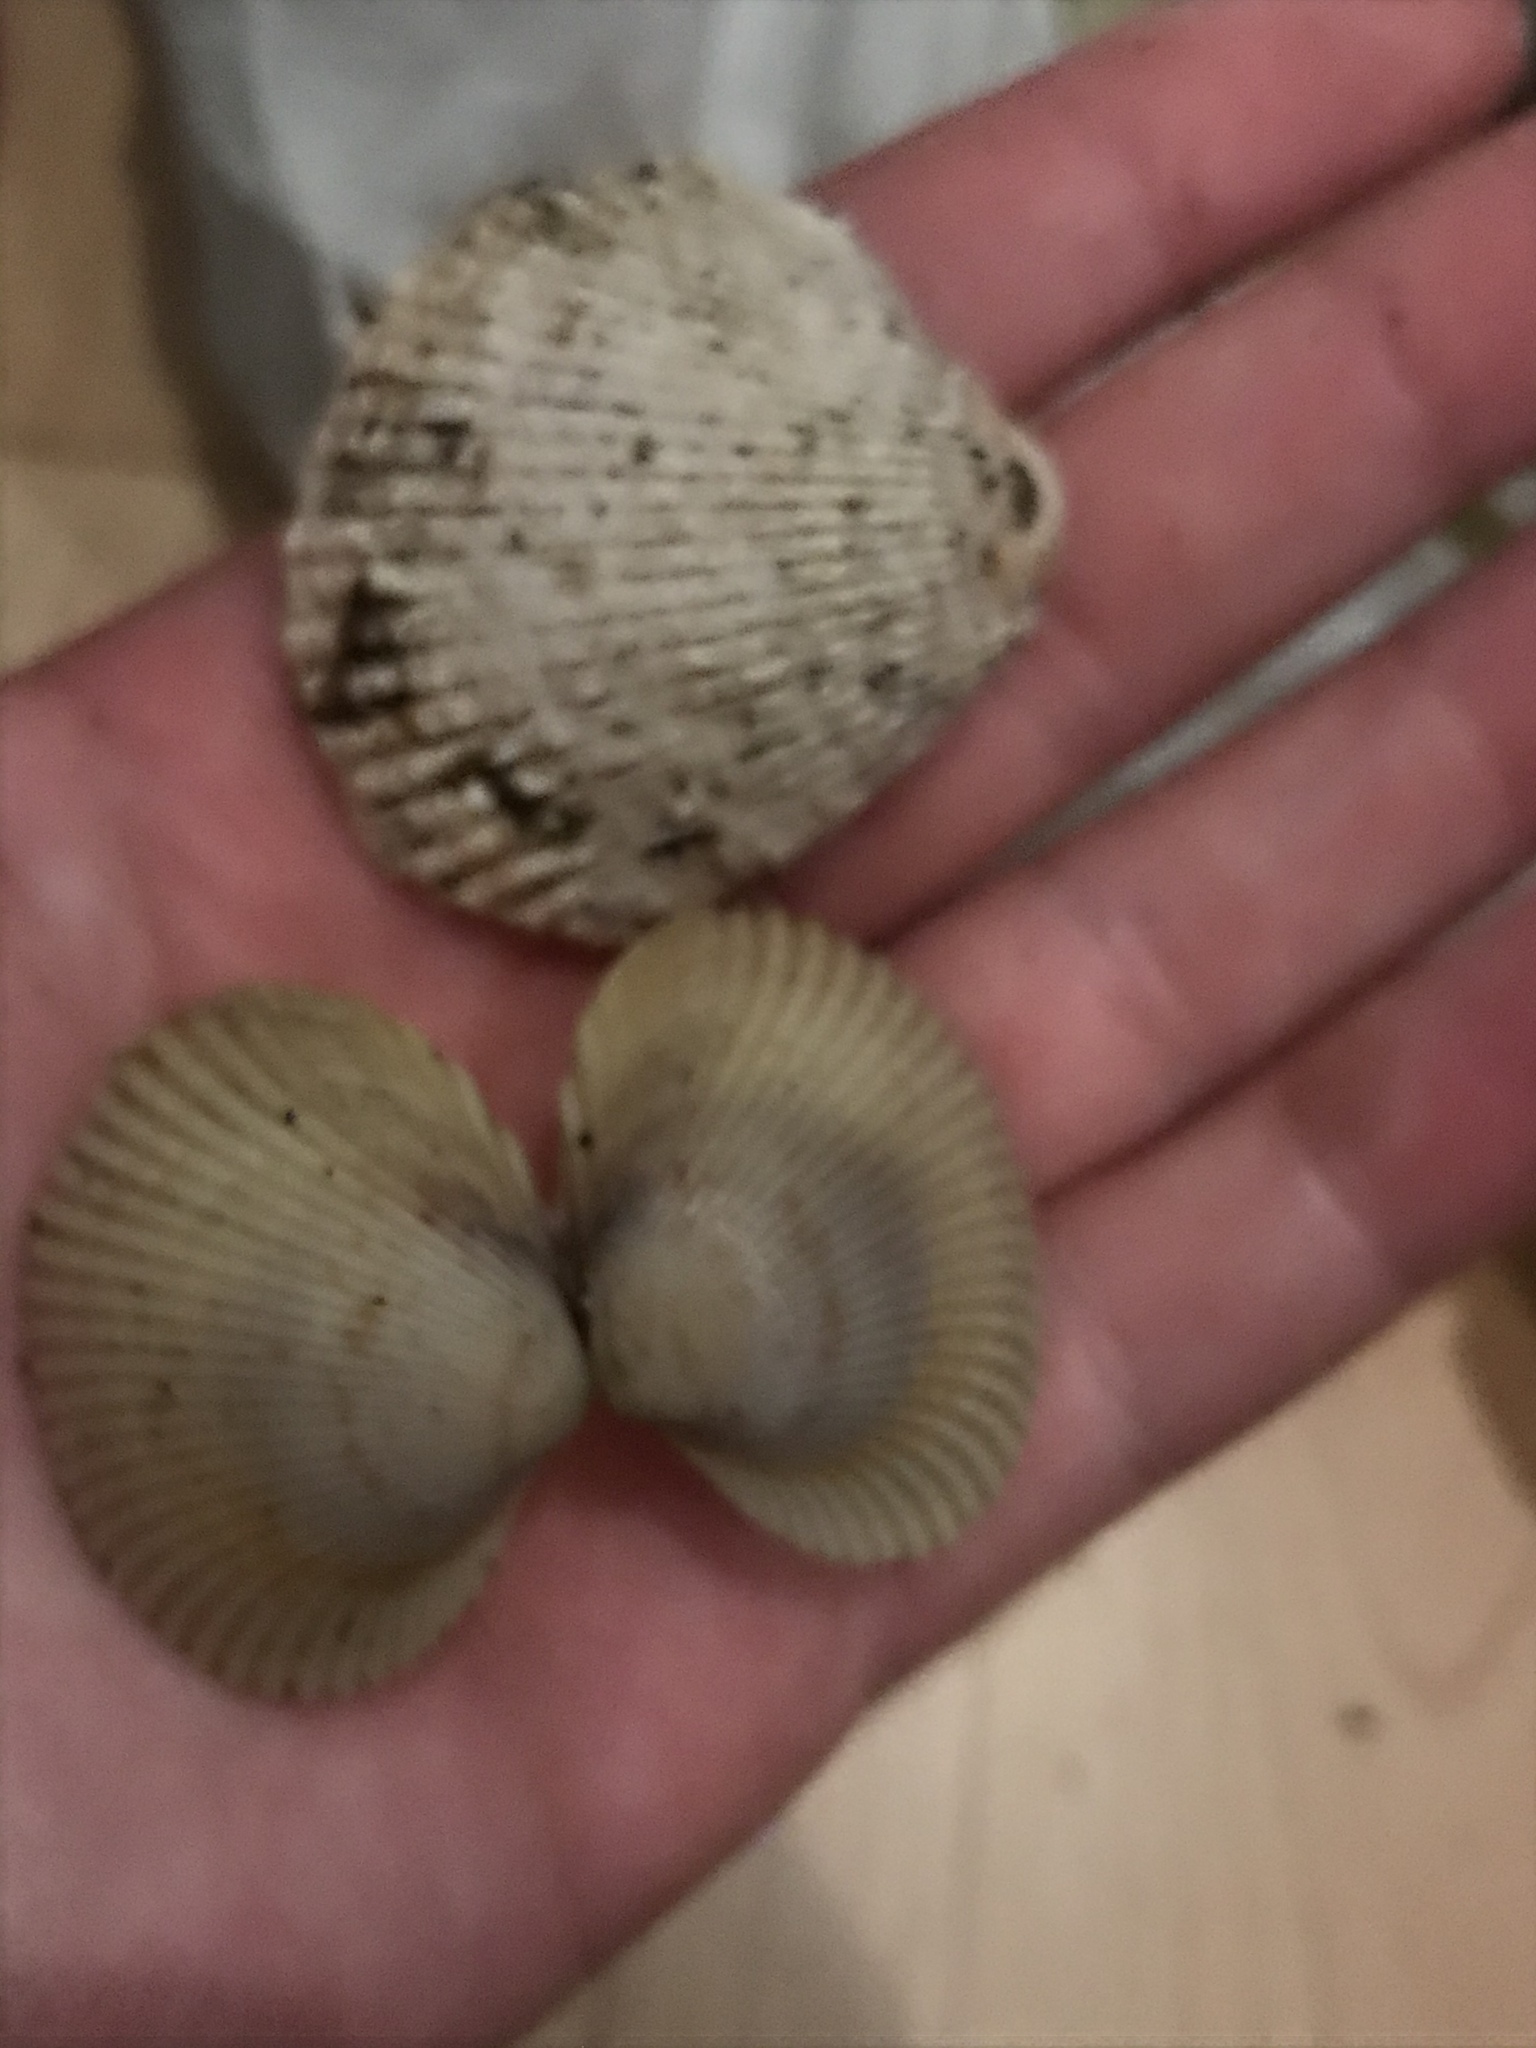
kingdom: Animalia
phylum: Mollusca
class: Bivalvia
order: Cardiida
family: Cardiidae
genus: Clinocardium
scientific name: Clinocardium nuttallii
